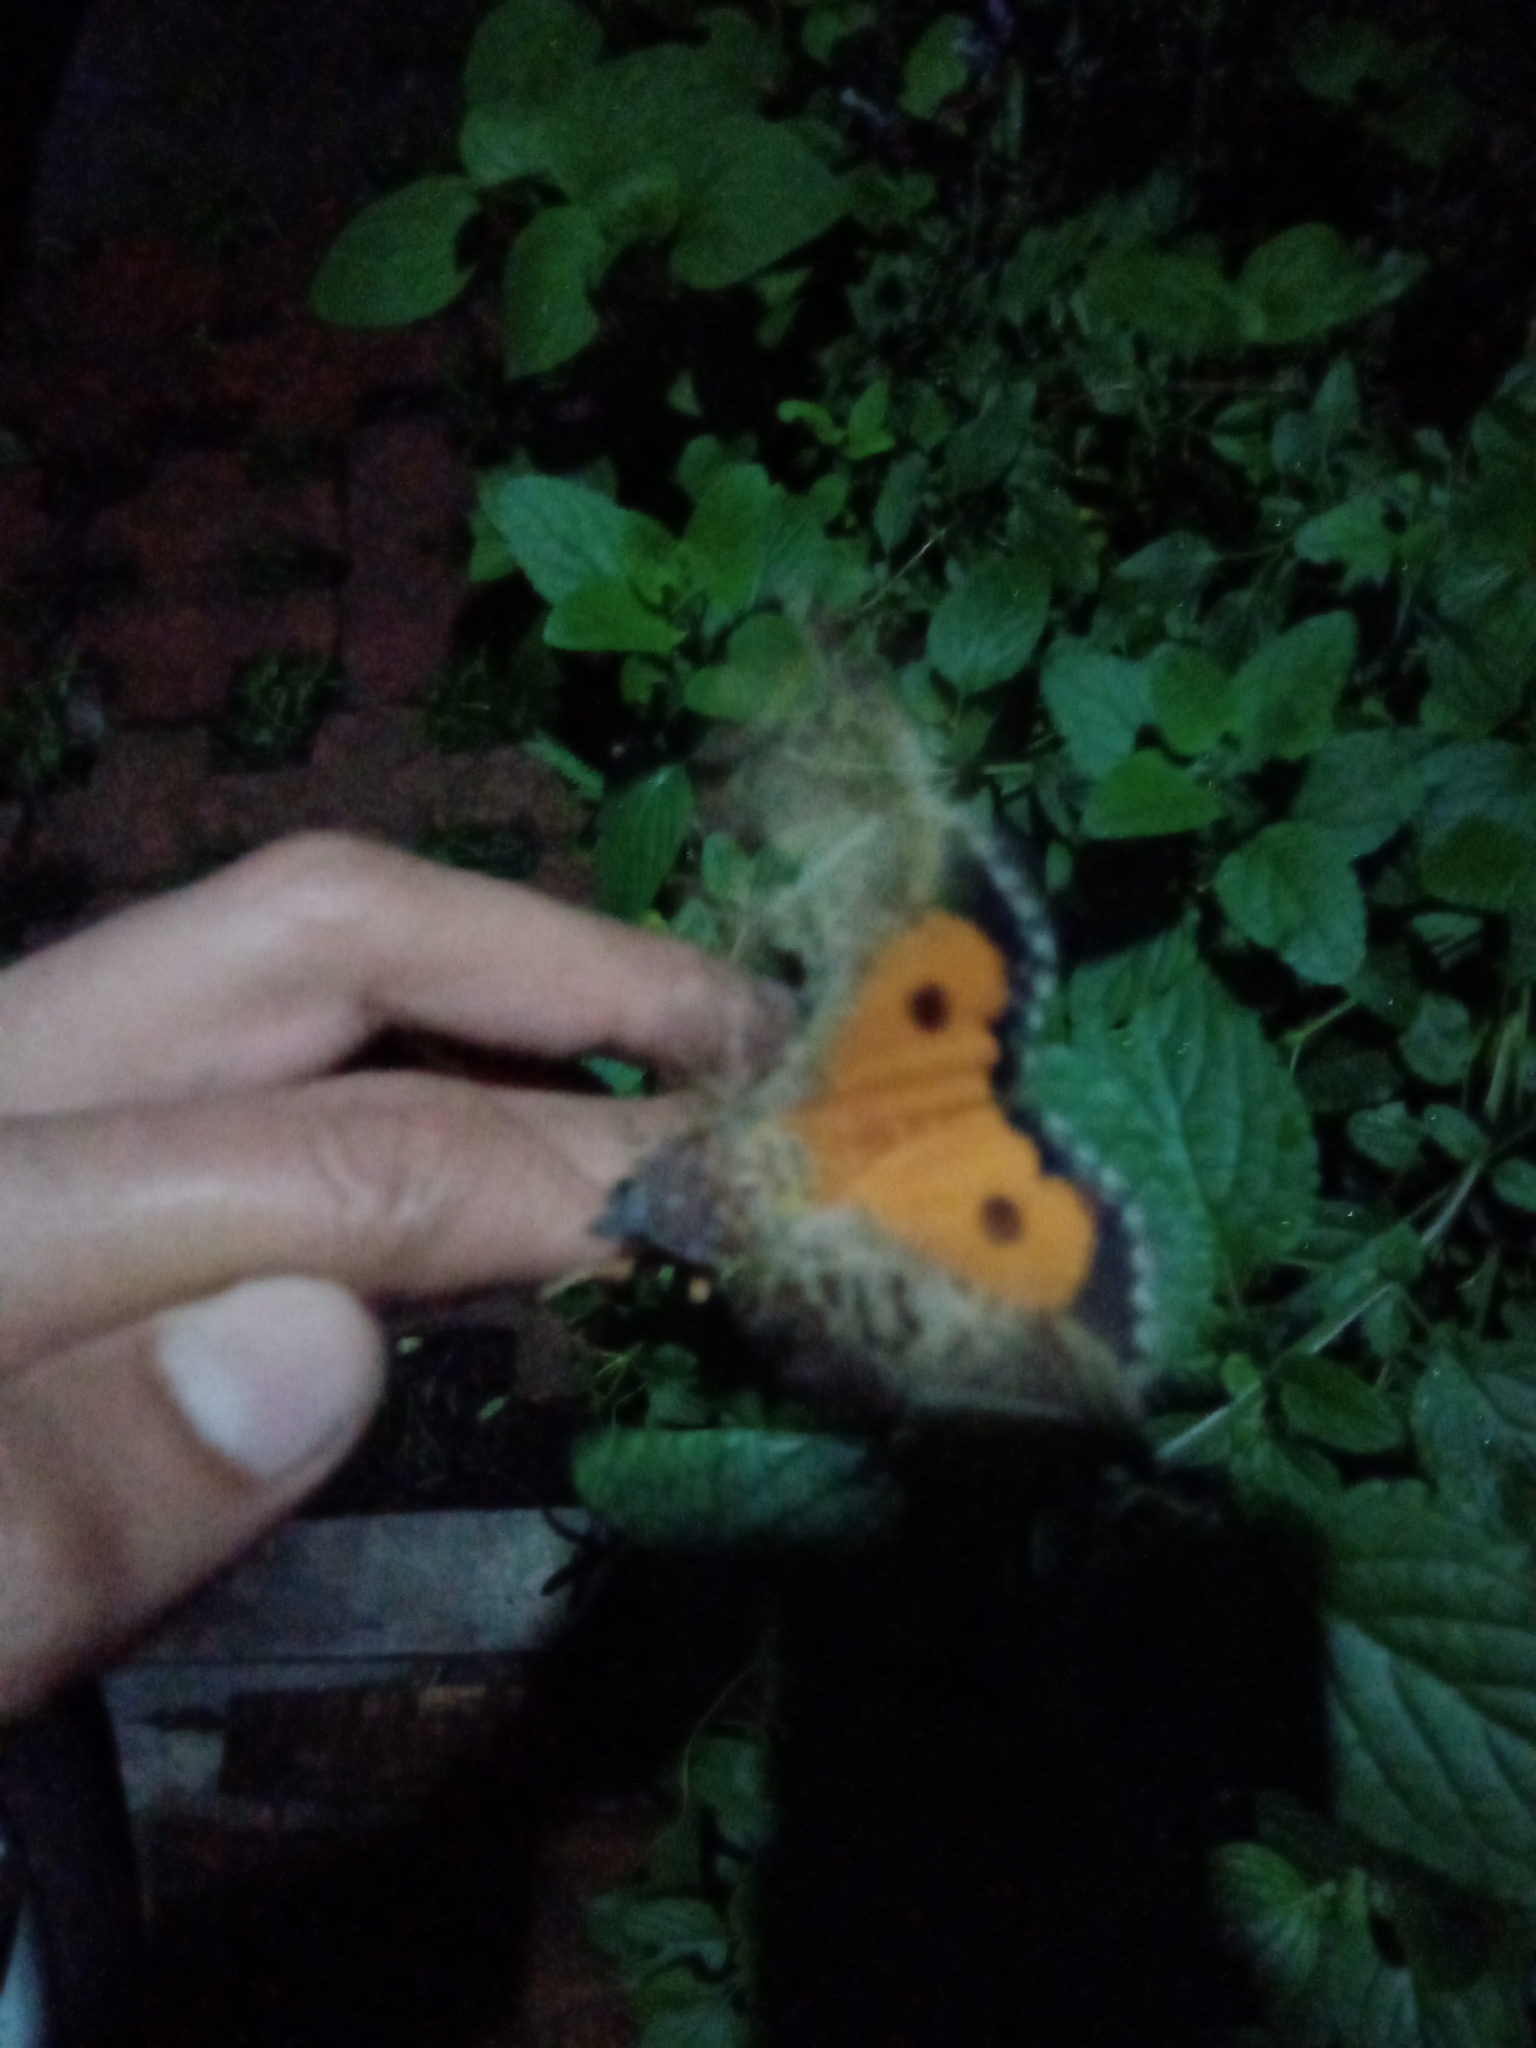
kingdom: Animalia
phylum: Arthropoda
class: Insecta
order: Lepidoptera
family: Erebidae
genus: Eudocima
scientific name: Eudocima apta
